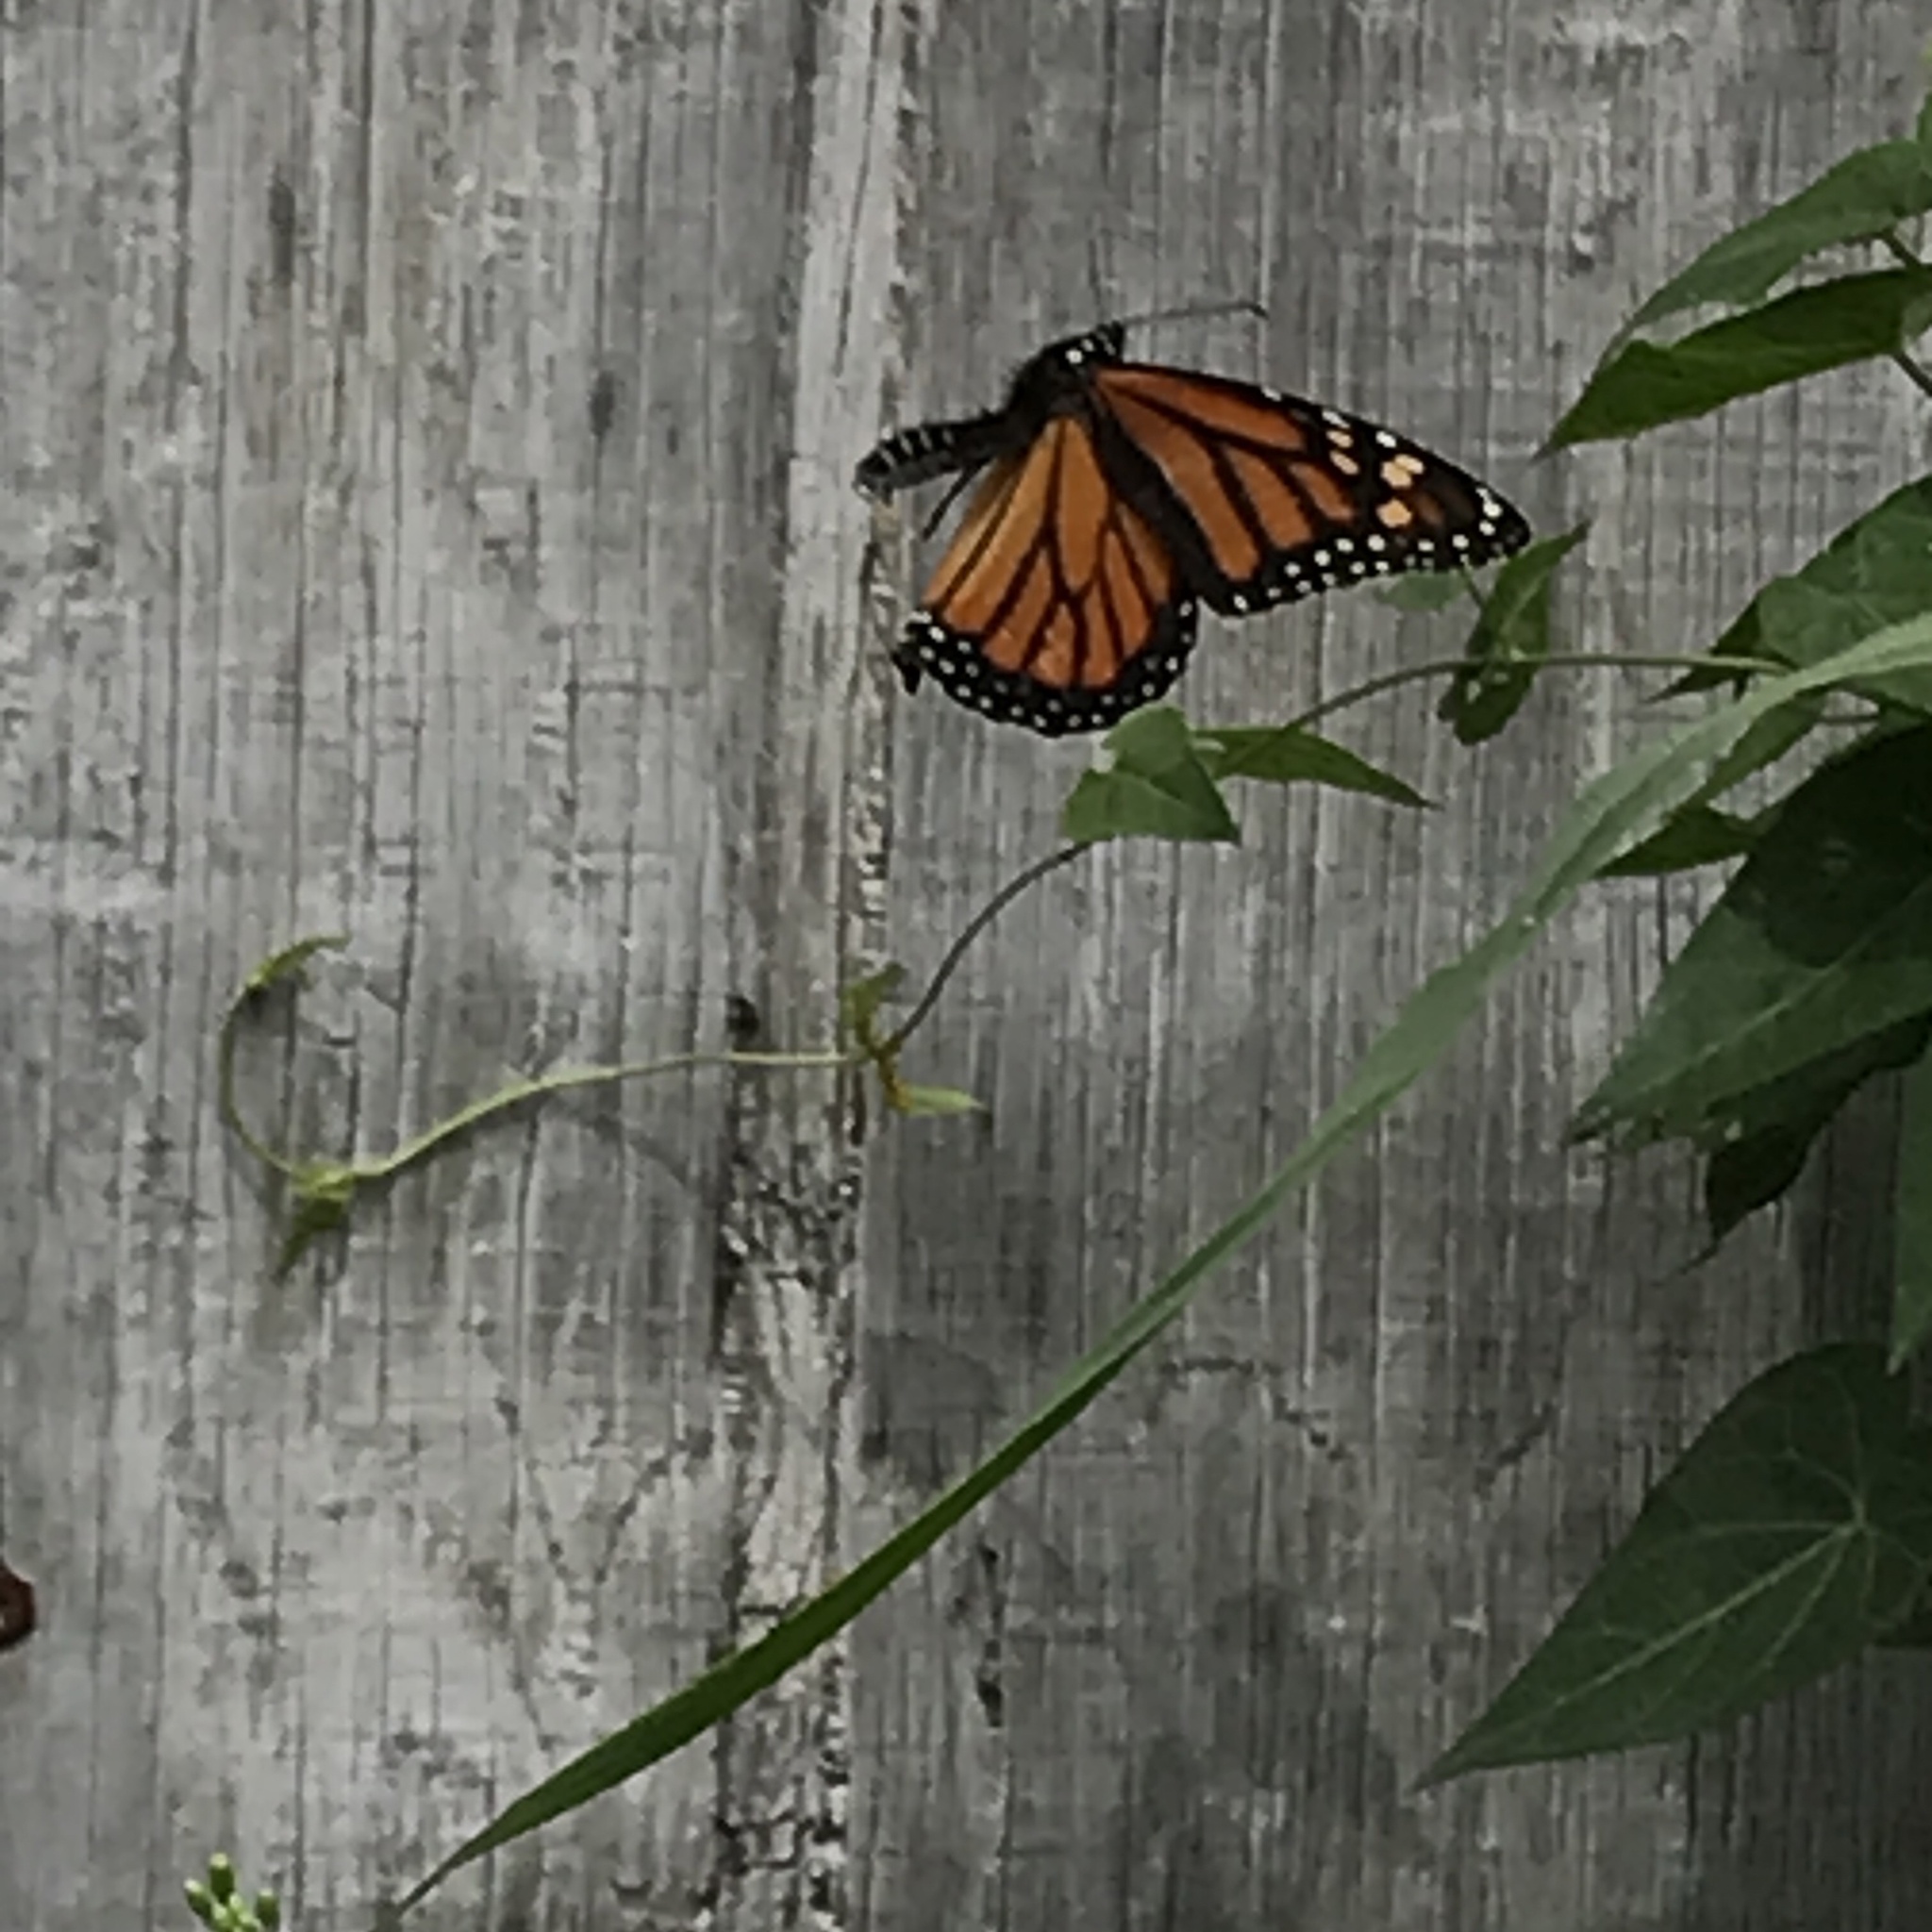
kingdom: Animalia
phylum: Arthropoda
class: Insecta
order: Lepidoptera
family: Nymphalidae
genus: Danaus
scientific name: Danaus plexippus
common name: Monarch
